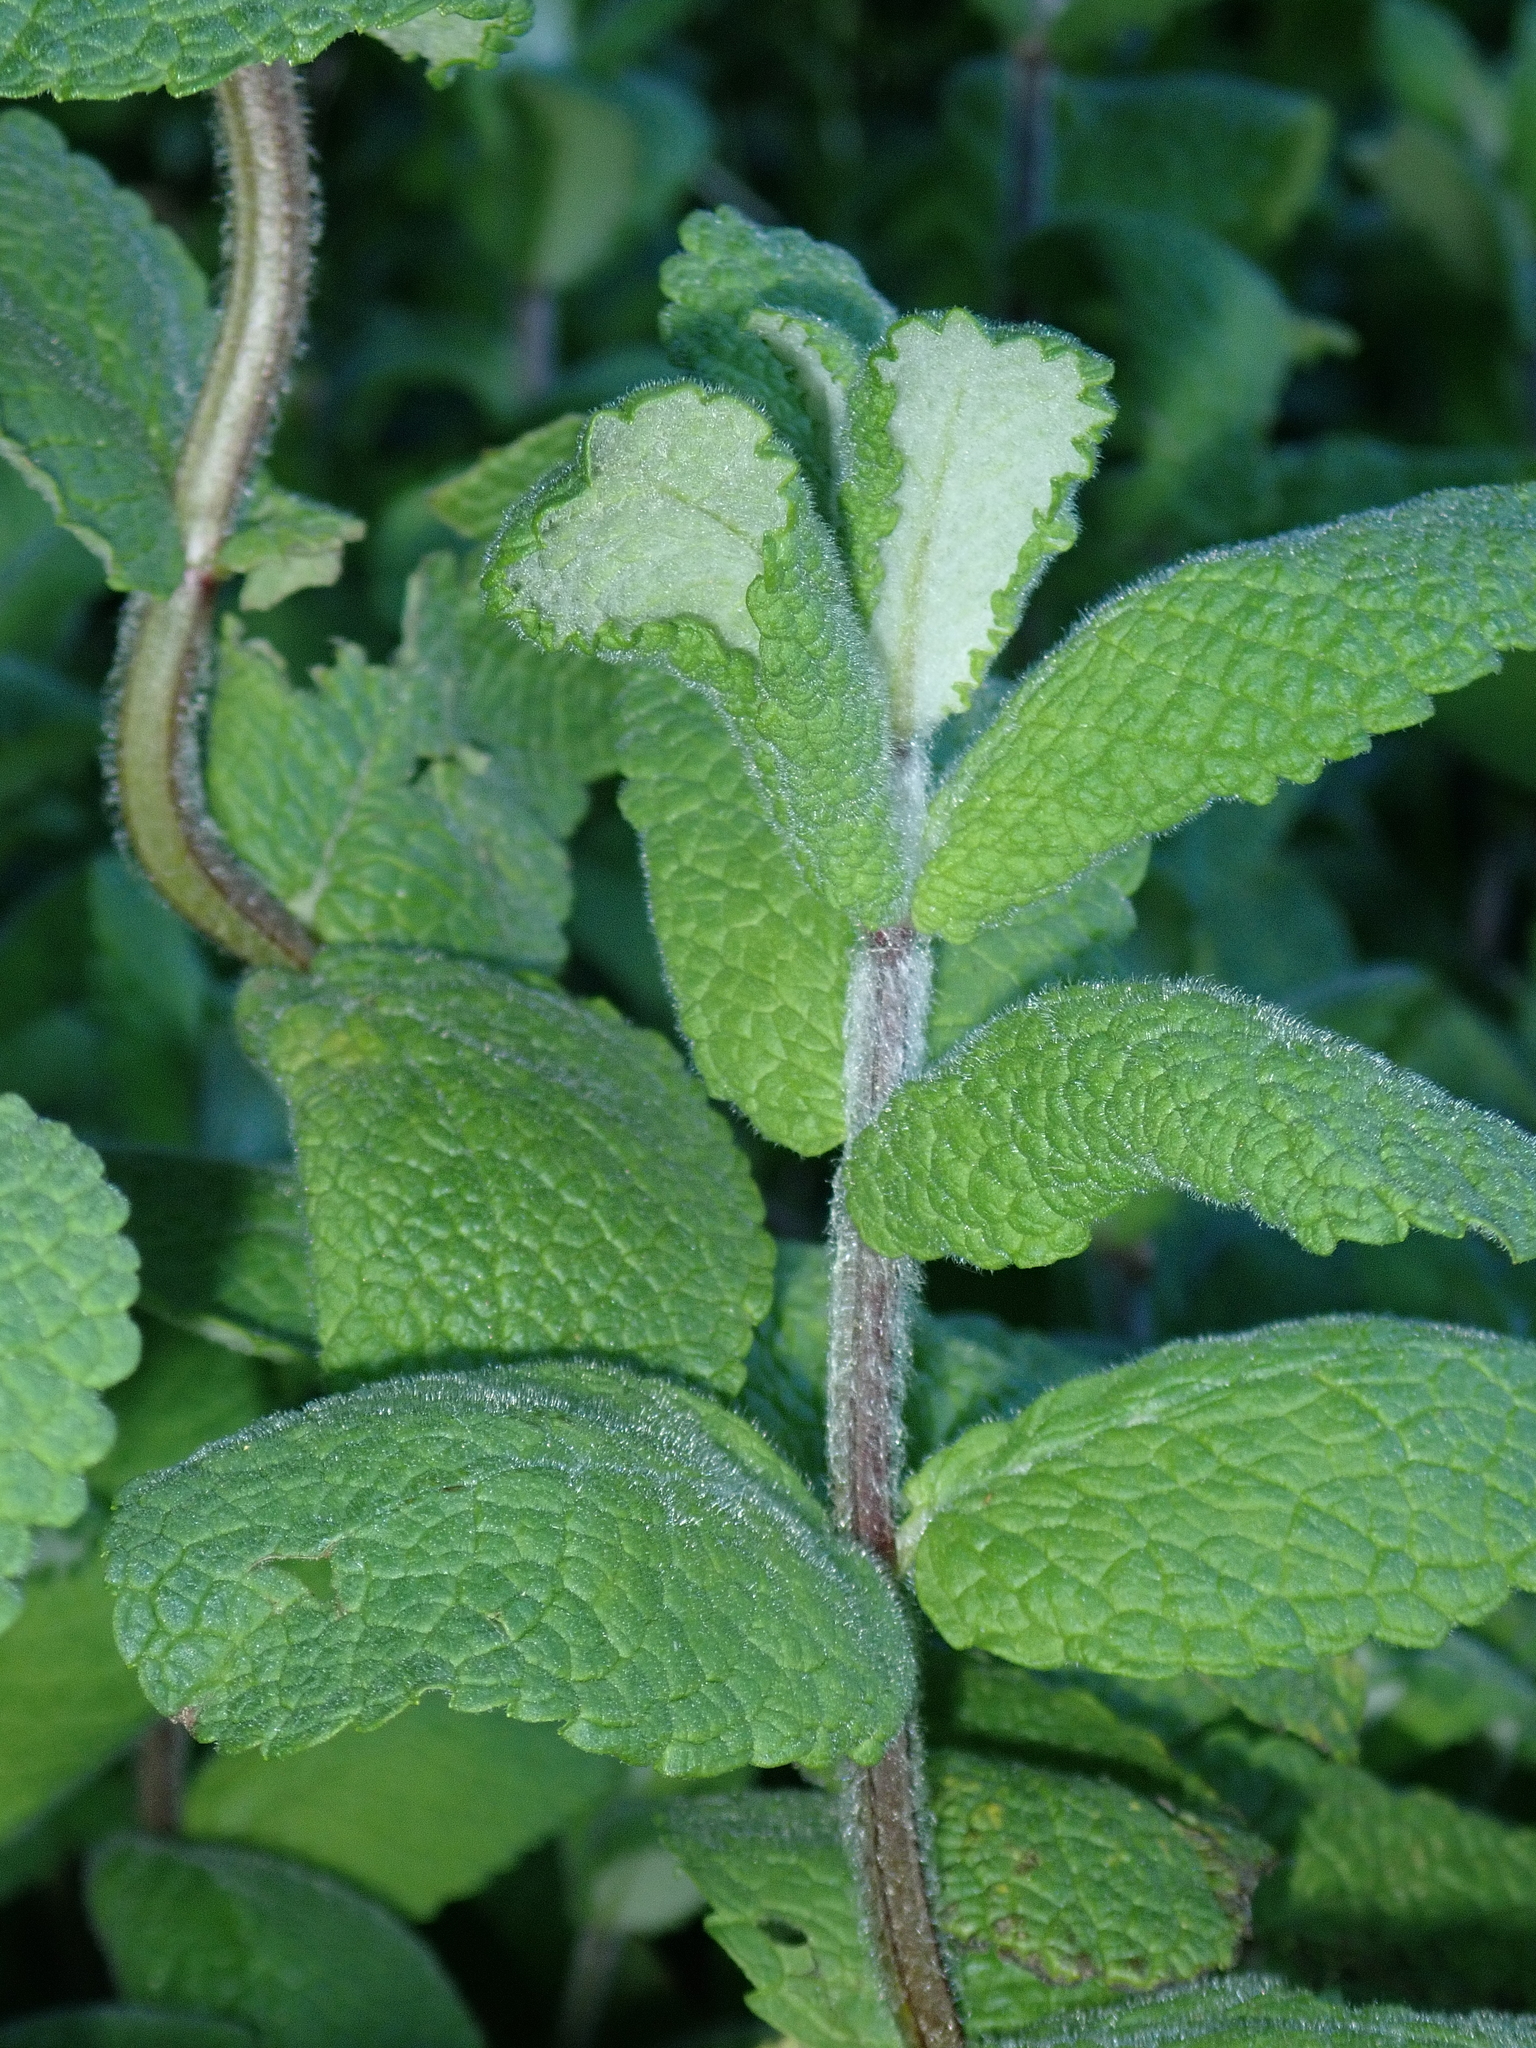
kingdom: Plantae
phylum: Tracheophyta
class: Magnoliopsida
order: Lamiales
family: Lamiaceae
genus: Mentha
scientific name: Mentha suaveolens
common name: Apple mint
